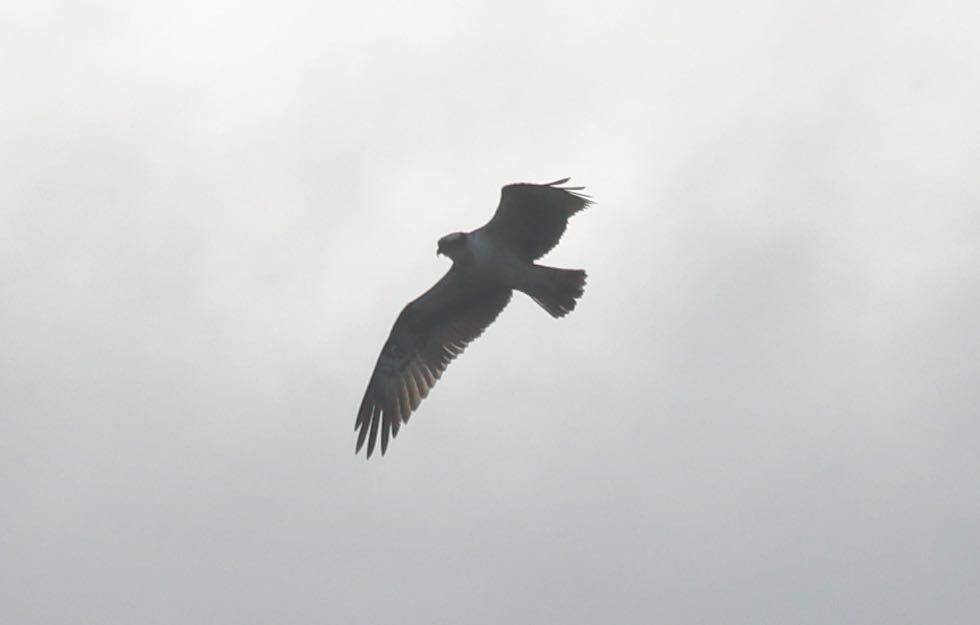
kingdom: Animalia
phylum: Chordata
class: Aves
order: Accipitriformes
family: Pandionidae
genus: Pandion
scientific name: Pandion haliaetus
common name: Osprey
